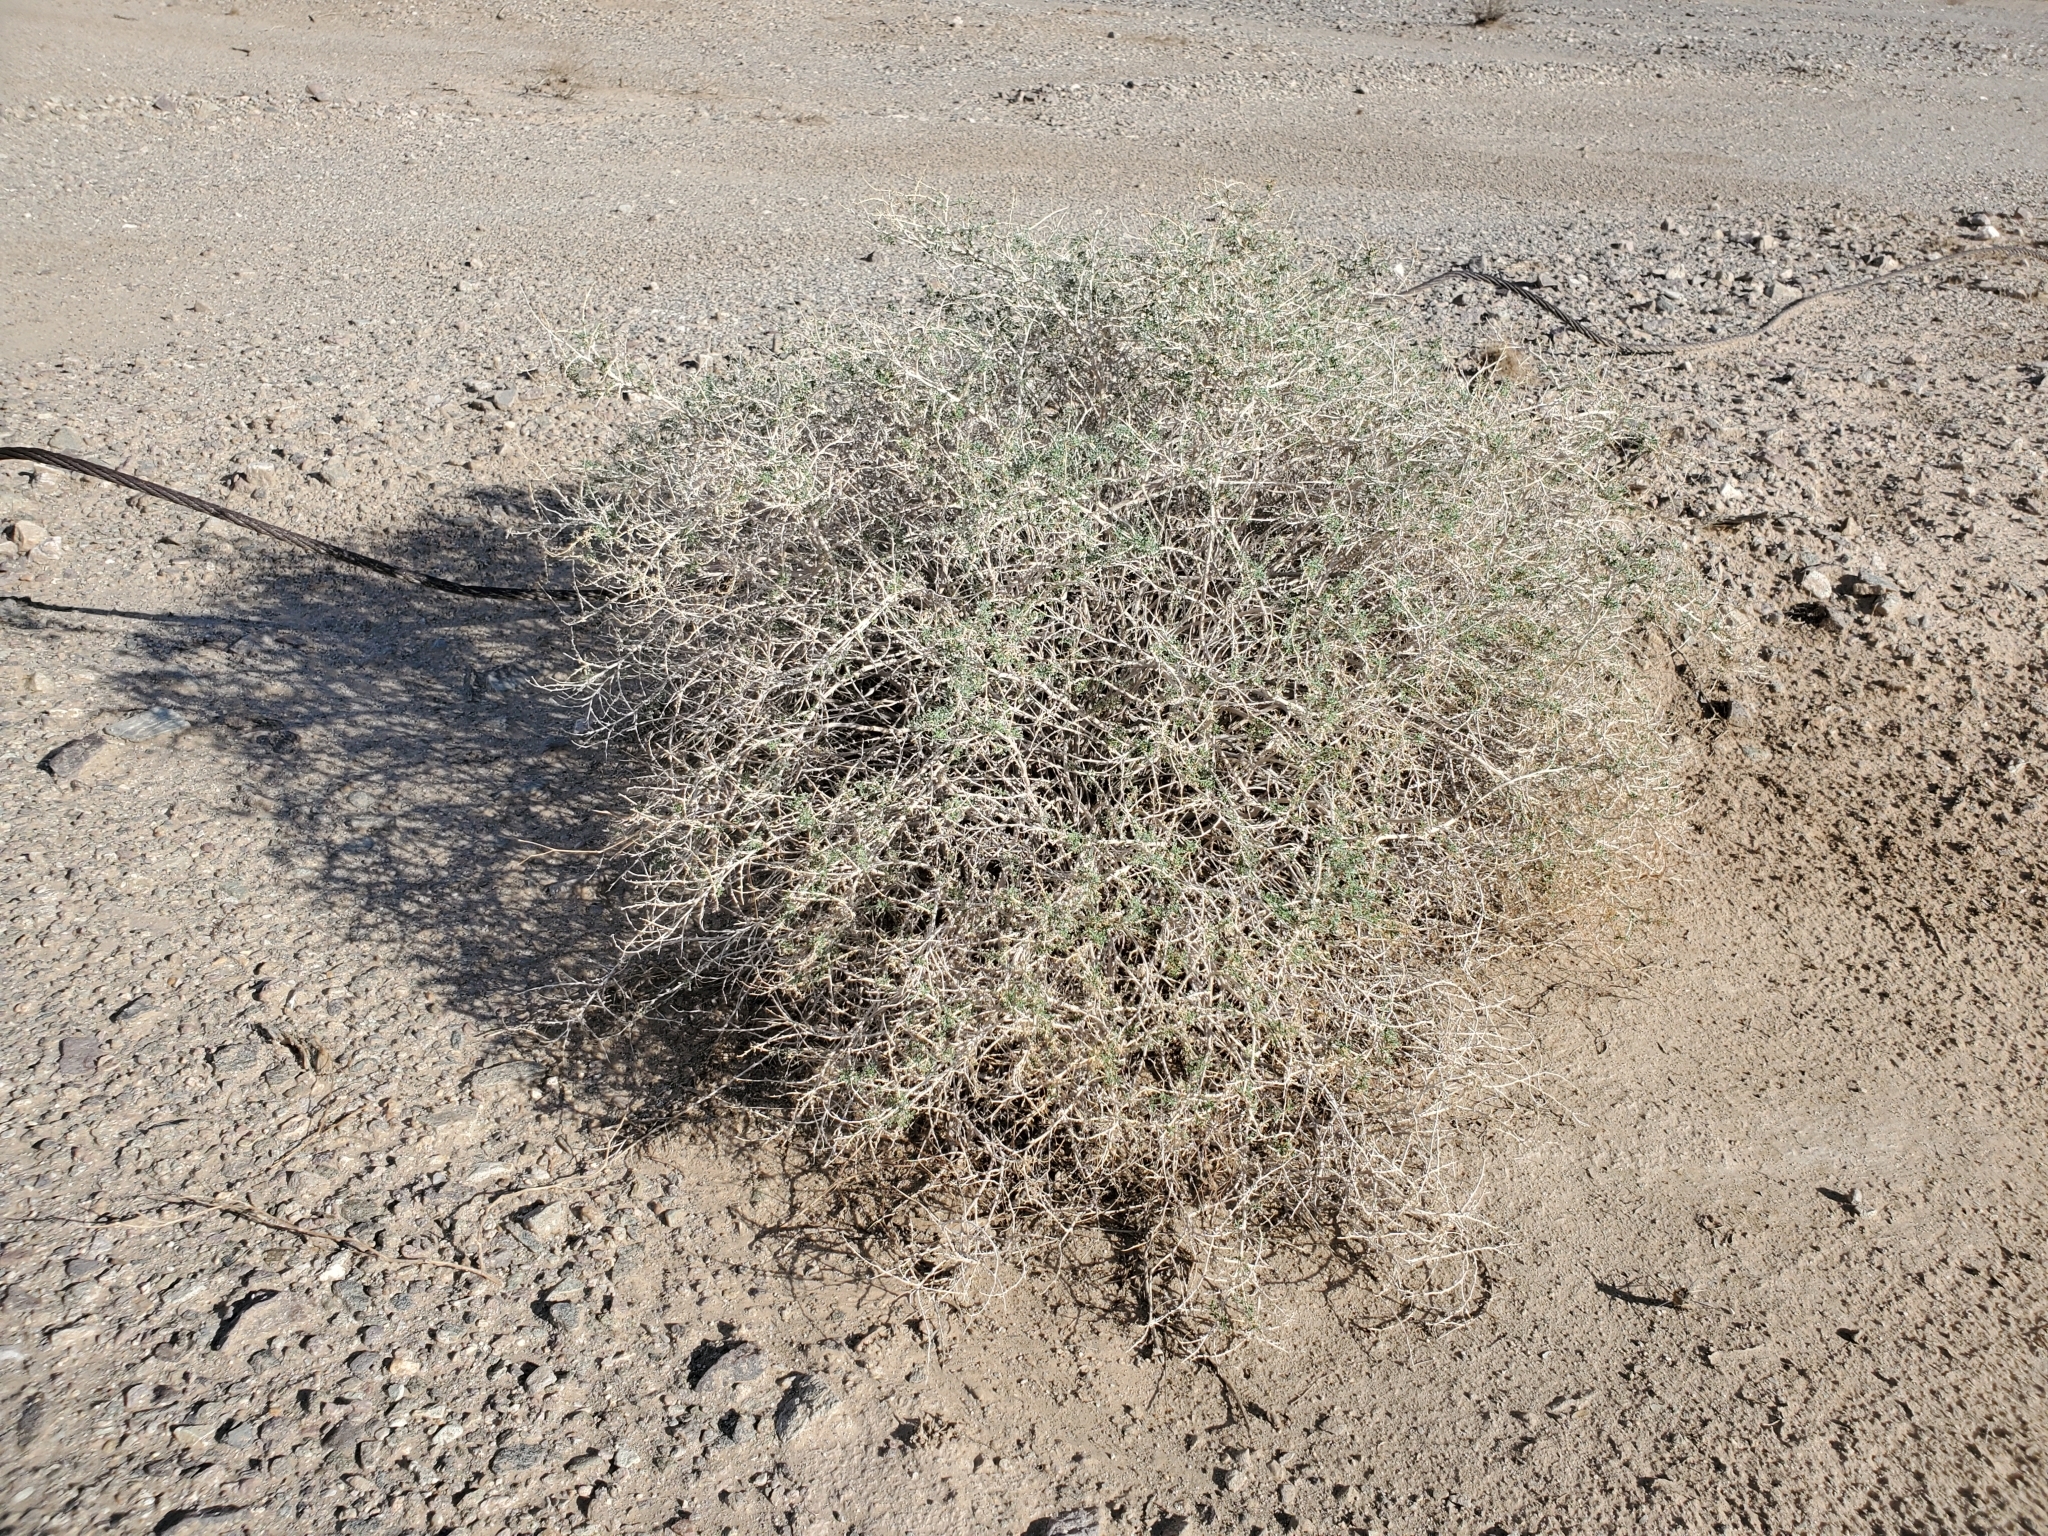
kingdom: Plantae
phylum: Tracheophyta
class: Magnoliopsida
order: Asterales
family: Asteraceae
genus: Ambrosia
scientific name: Ambrosia dumosa
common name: Bur-sage
